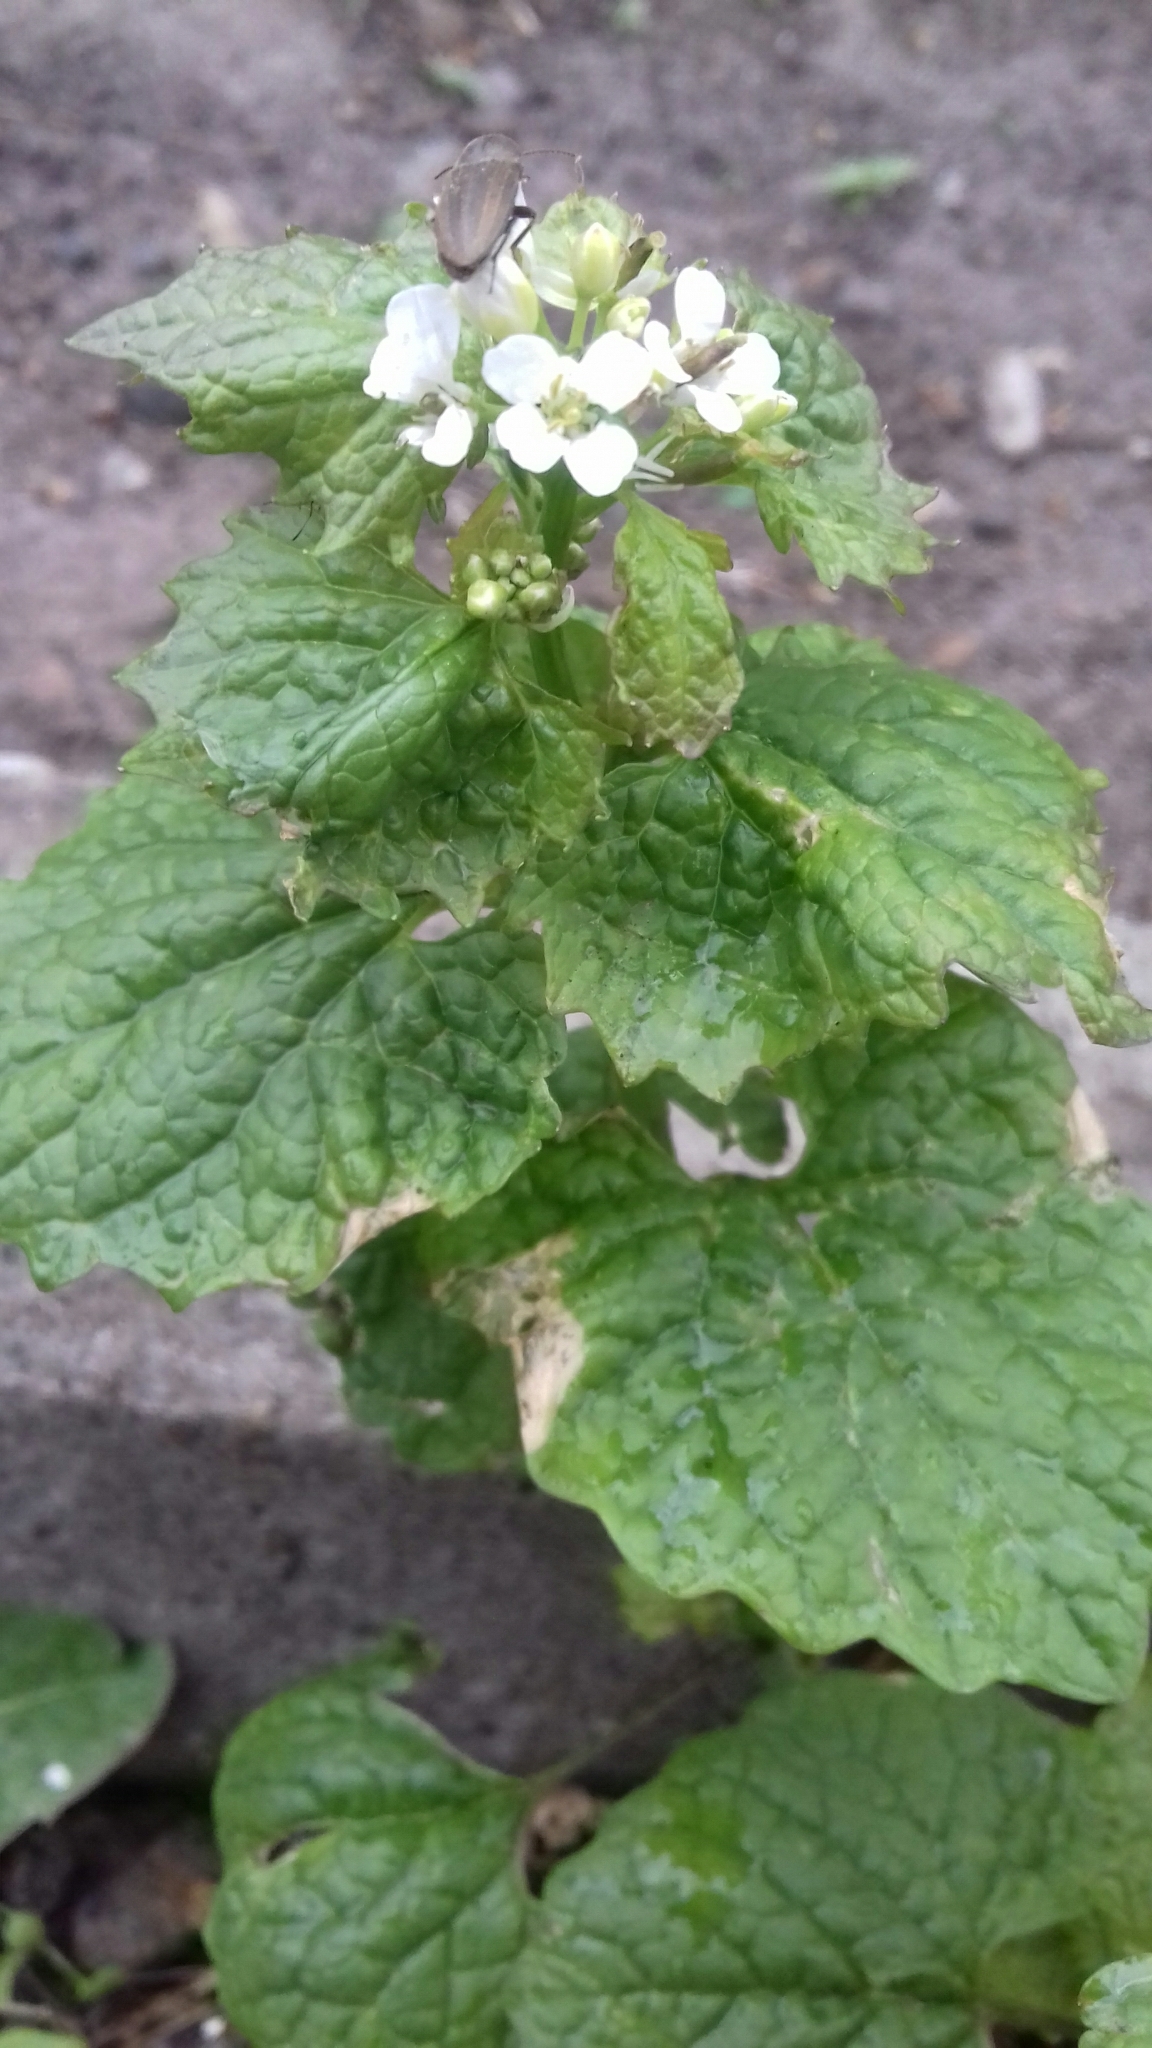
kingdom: Plantae
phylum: Tracheophyta
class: Magnoliopsida
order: Brassicales
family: Brassicaceae
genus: Alliaria
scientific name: Alliaria petiolata
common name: Garlic mustard
